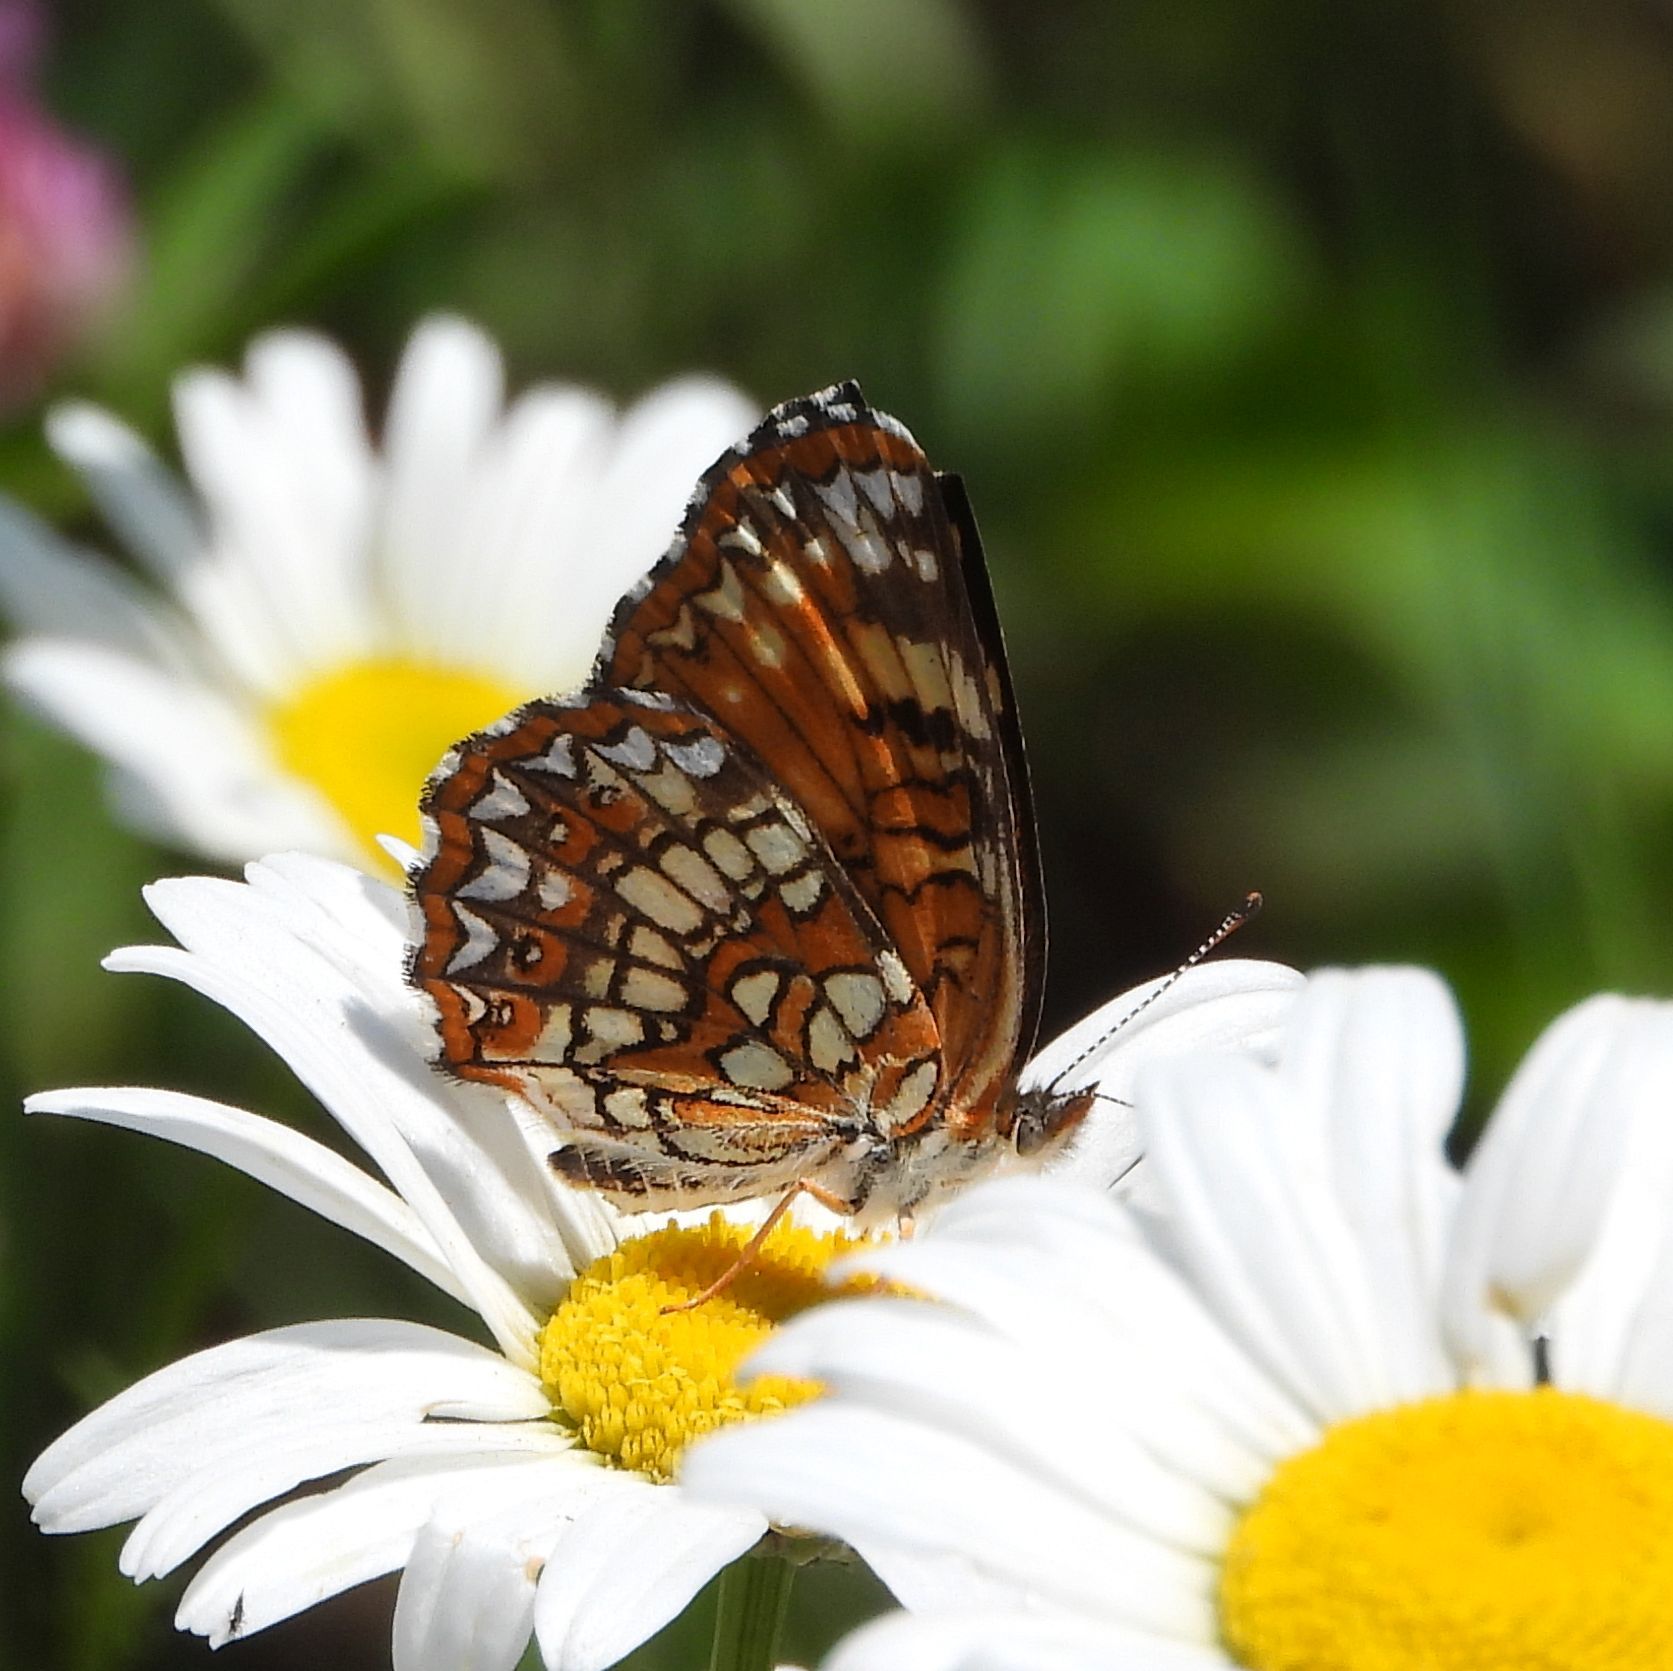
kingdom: Animalia
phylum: Arthropoda
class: Insecta
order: Lepidoptera
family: Nymphalidae
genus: Chlosyne
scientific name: Chlosyne harrisii
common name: Harris's checkerspot
